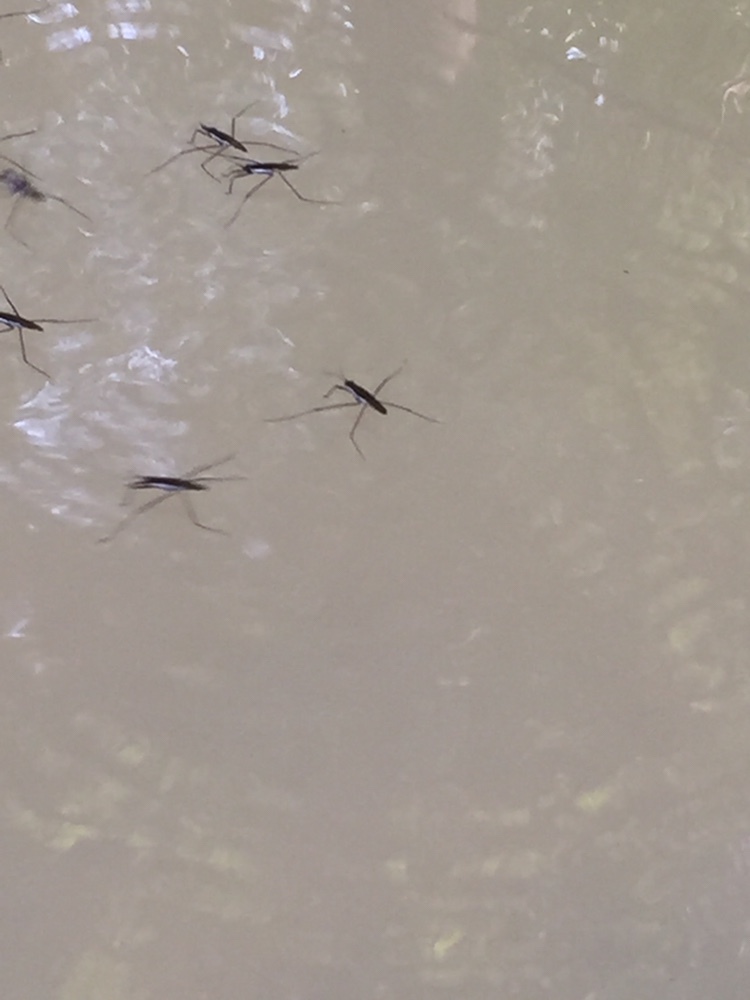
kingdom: Animalia
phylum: Arthropoda
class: Insecta
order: Hemiptera
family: Gerridae
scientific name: Gerridae
